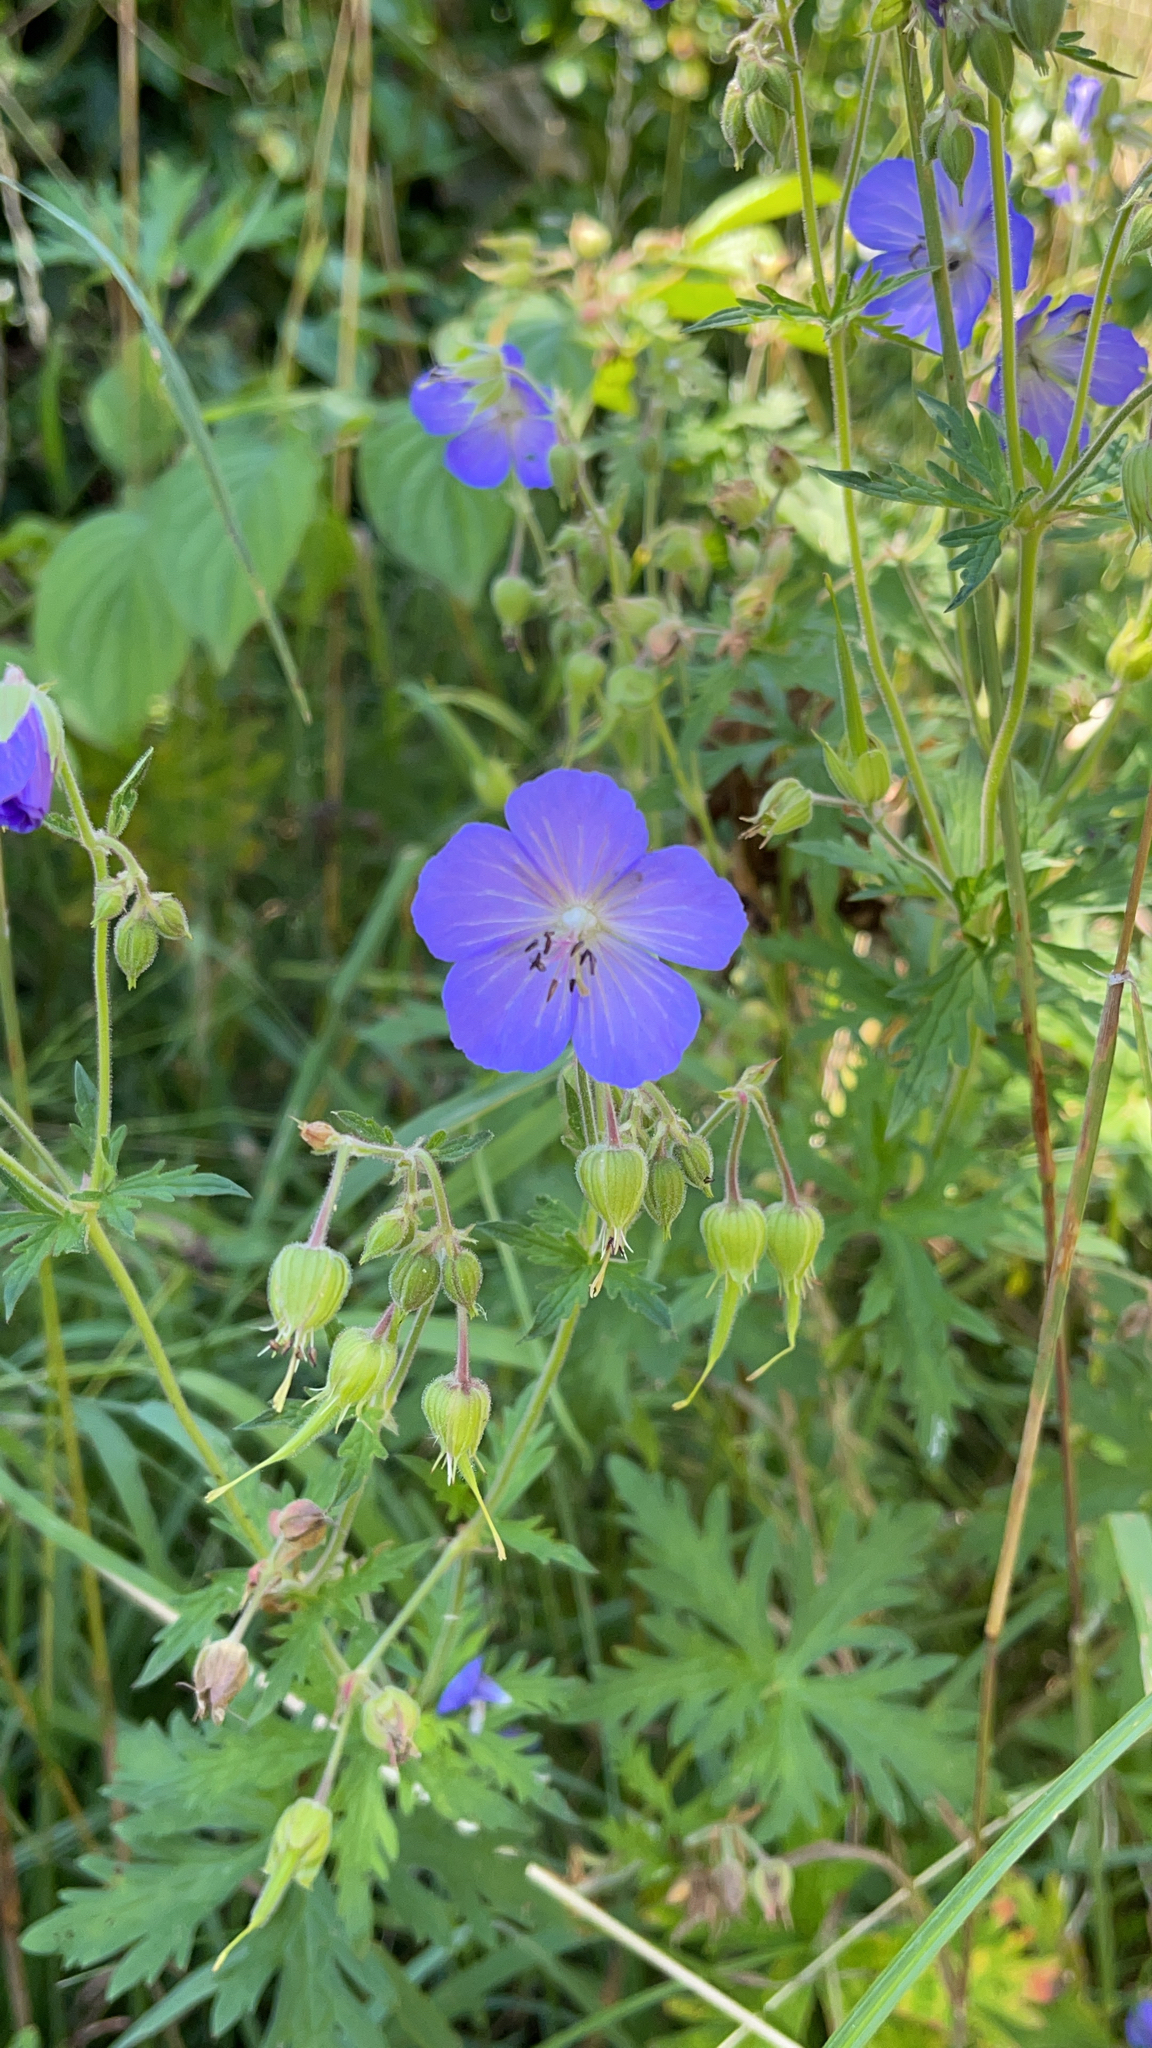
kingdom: Plantae
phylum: Tracheophyta
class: Magnoliopsida
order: Geraniales
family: Geraniaceae
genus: Geranium
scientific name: Geranium pratense
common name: Meadow crane's-bill
